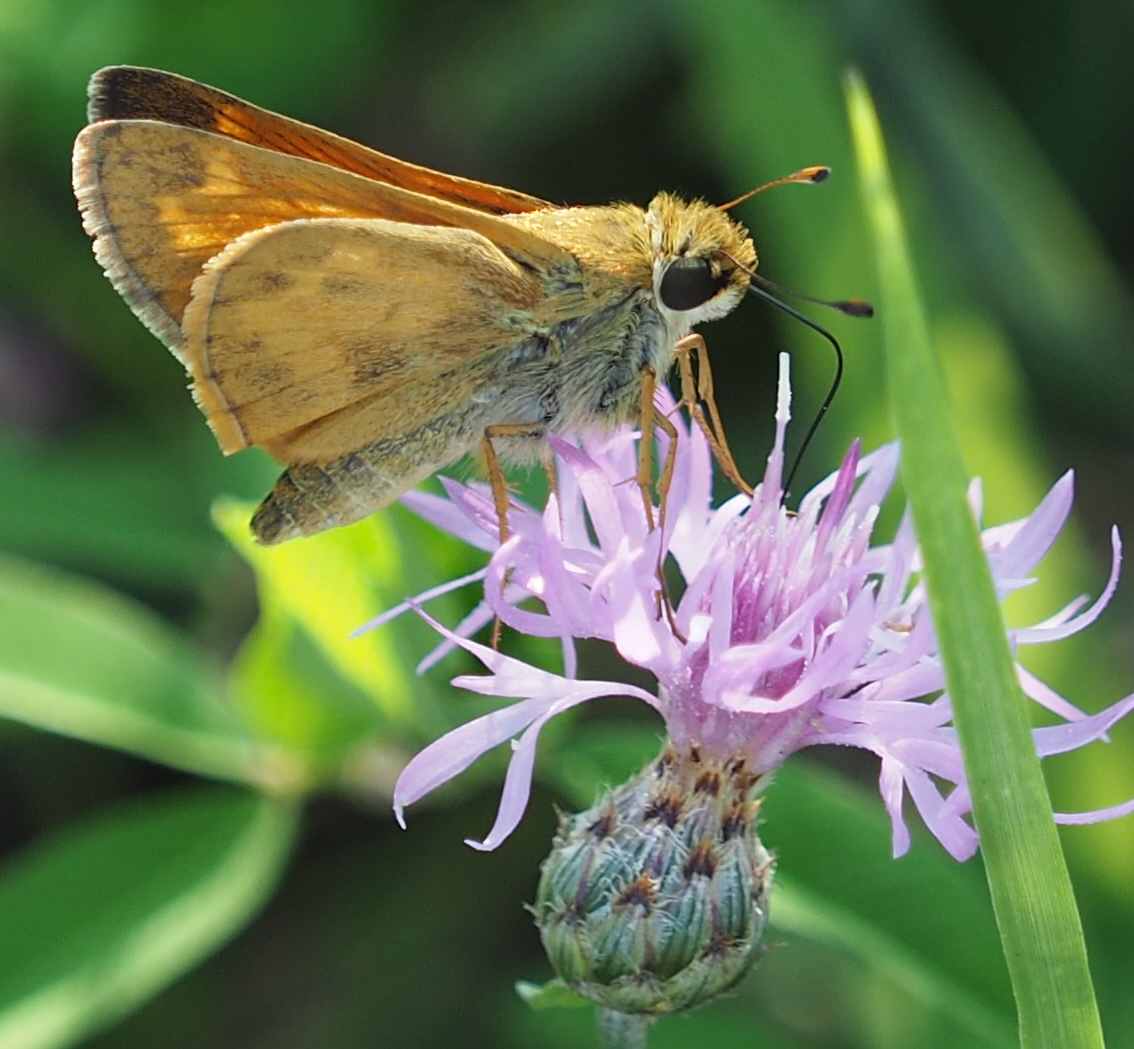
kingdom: Animalia
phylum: Arthropoda
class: Insecta
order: Lepidoptera
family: Hesperiidae
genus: Atalopedes
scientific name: Atalopedes
